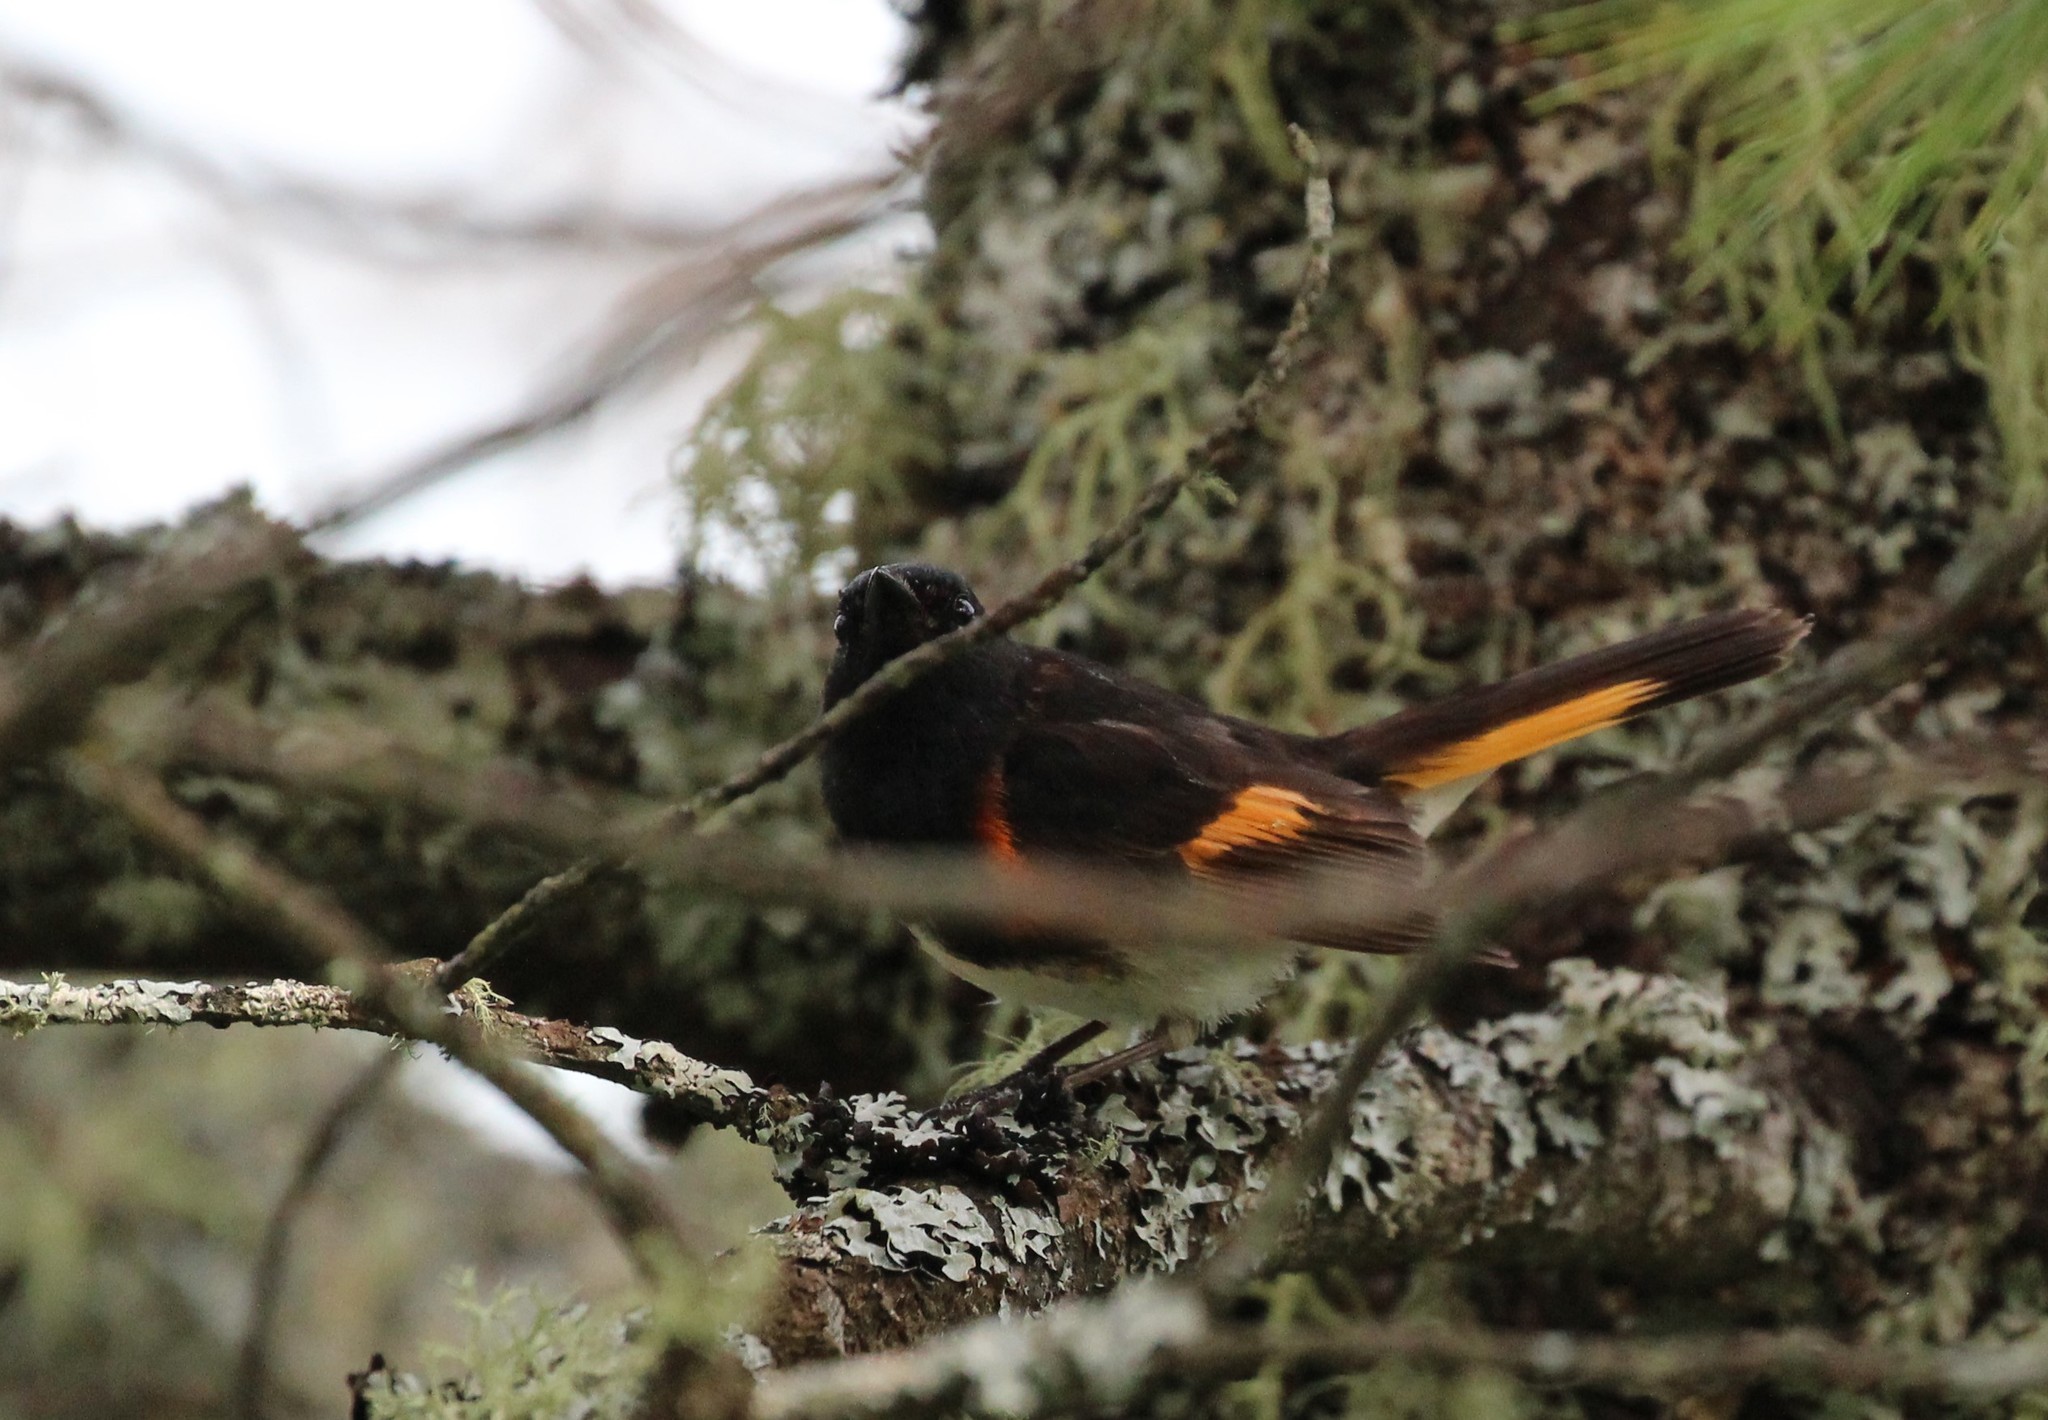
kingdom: Animalia
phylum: Chordata
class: Aves
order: Passeriformes
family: Parulidae
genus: Setophaga
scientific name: Setophaga ruticilla
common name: American redstart
